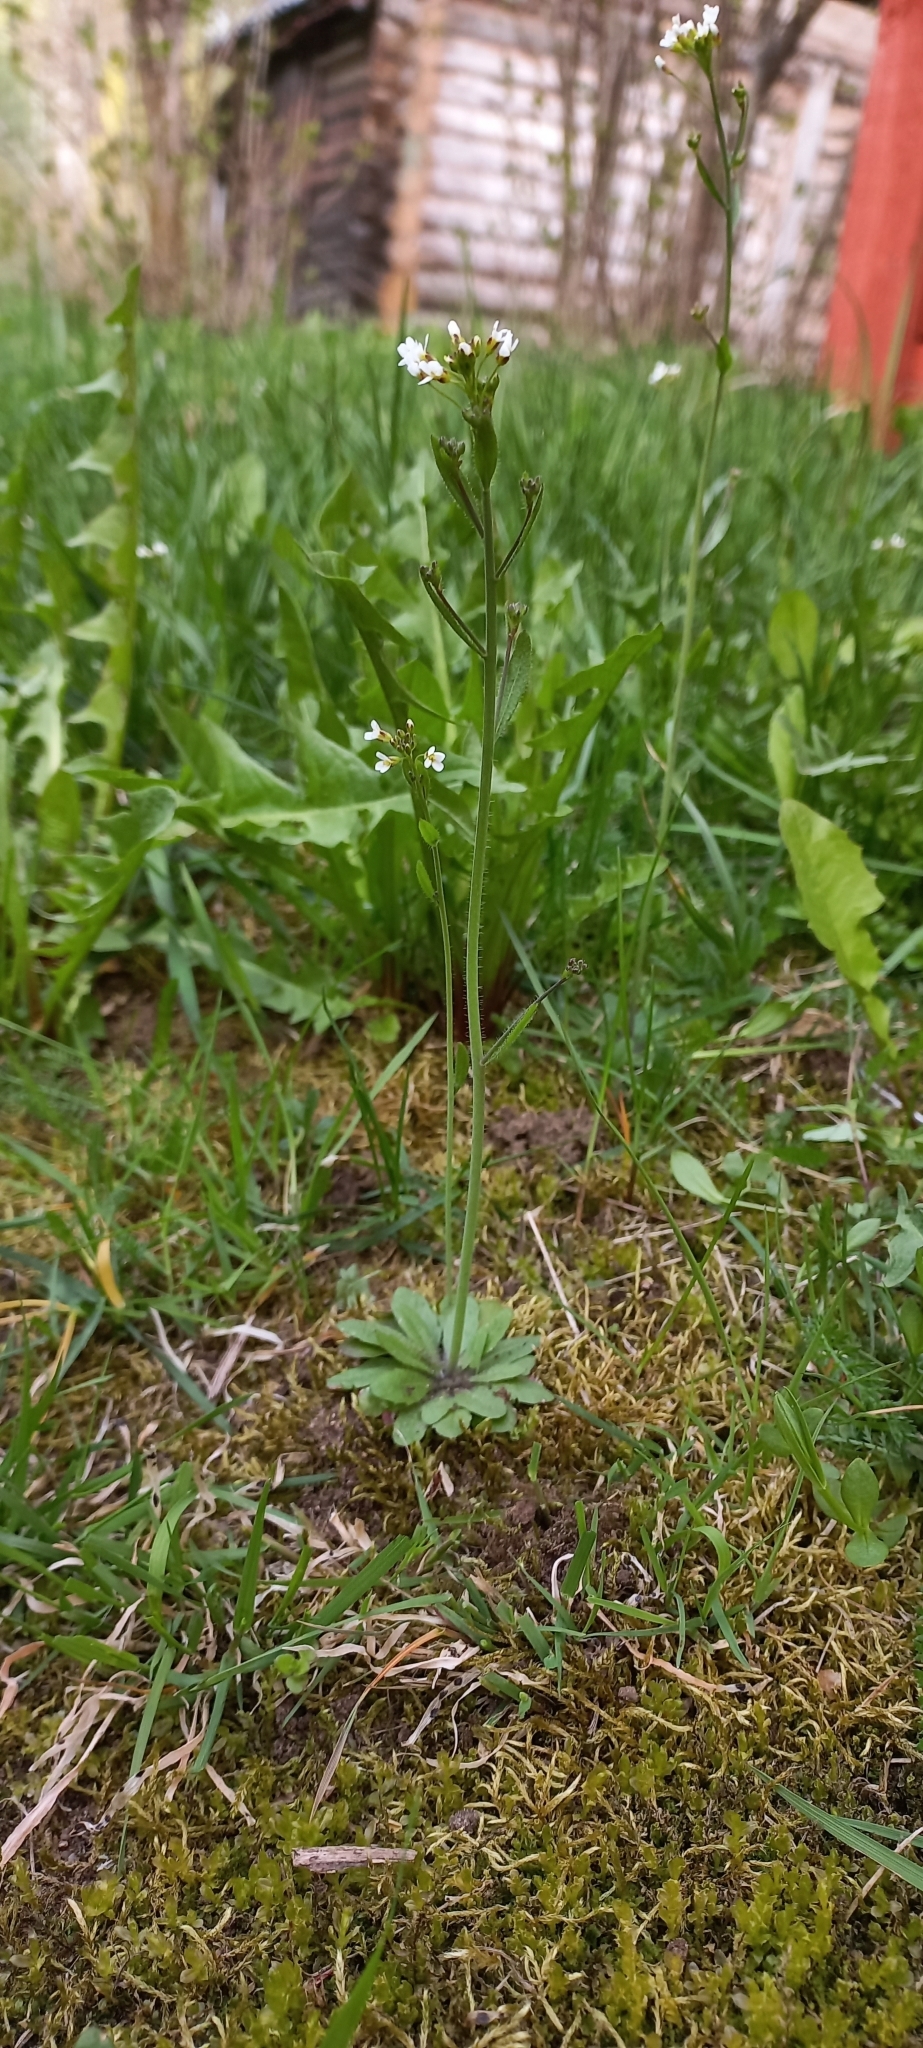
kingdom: Plantae
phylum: Tracheophyta
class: Magnoliopsida
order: Brassicales
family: Brassicaceae
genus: Arabidopsis
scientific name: Arabidopsis thaliana
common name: Thale cress
